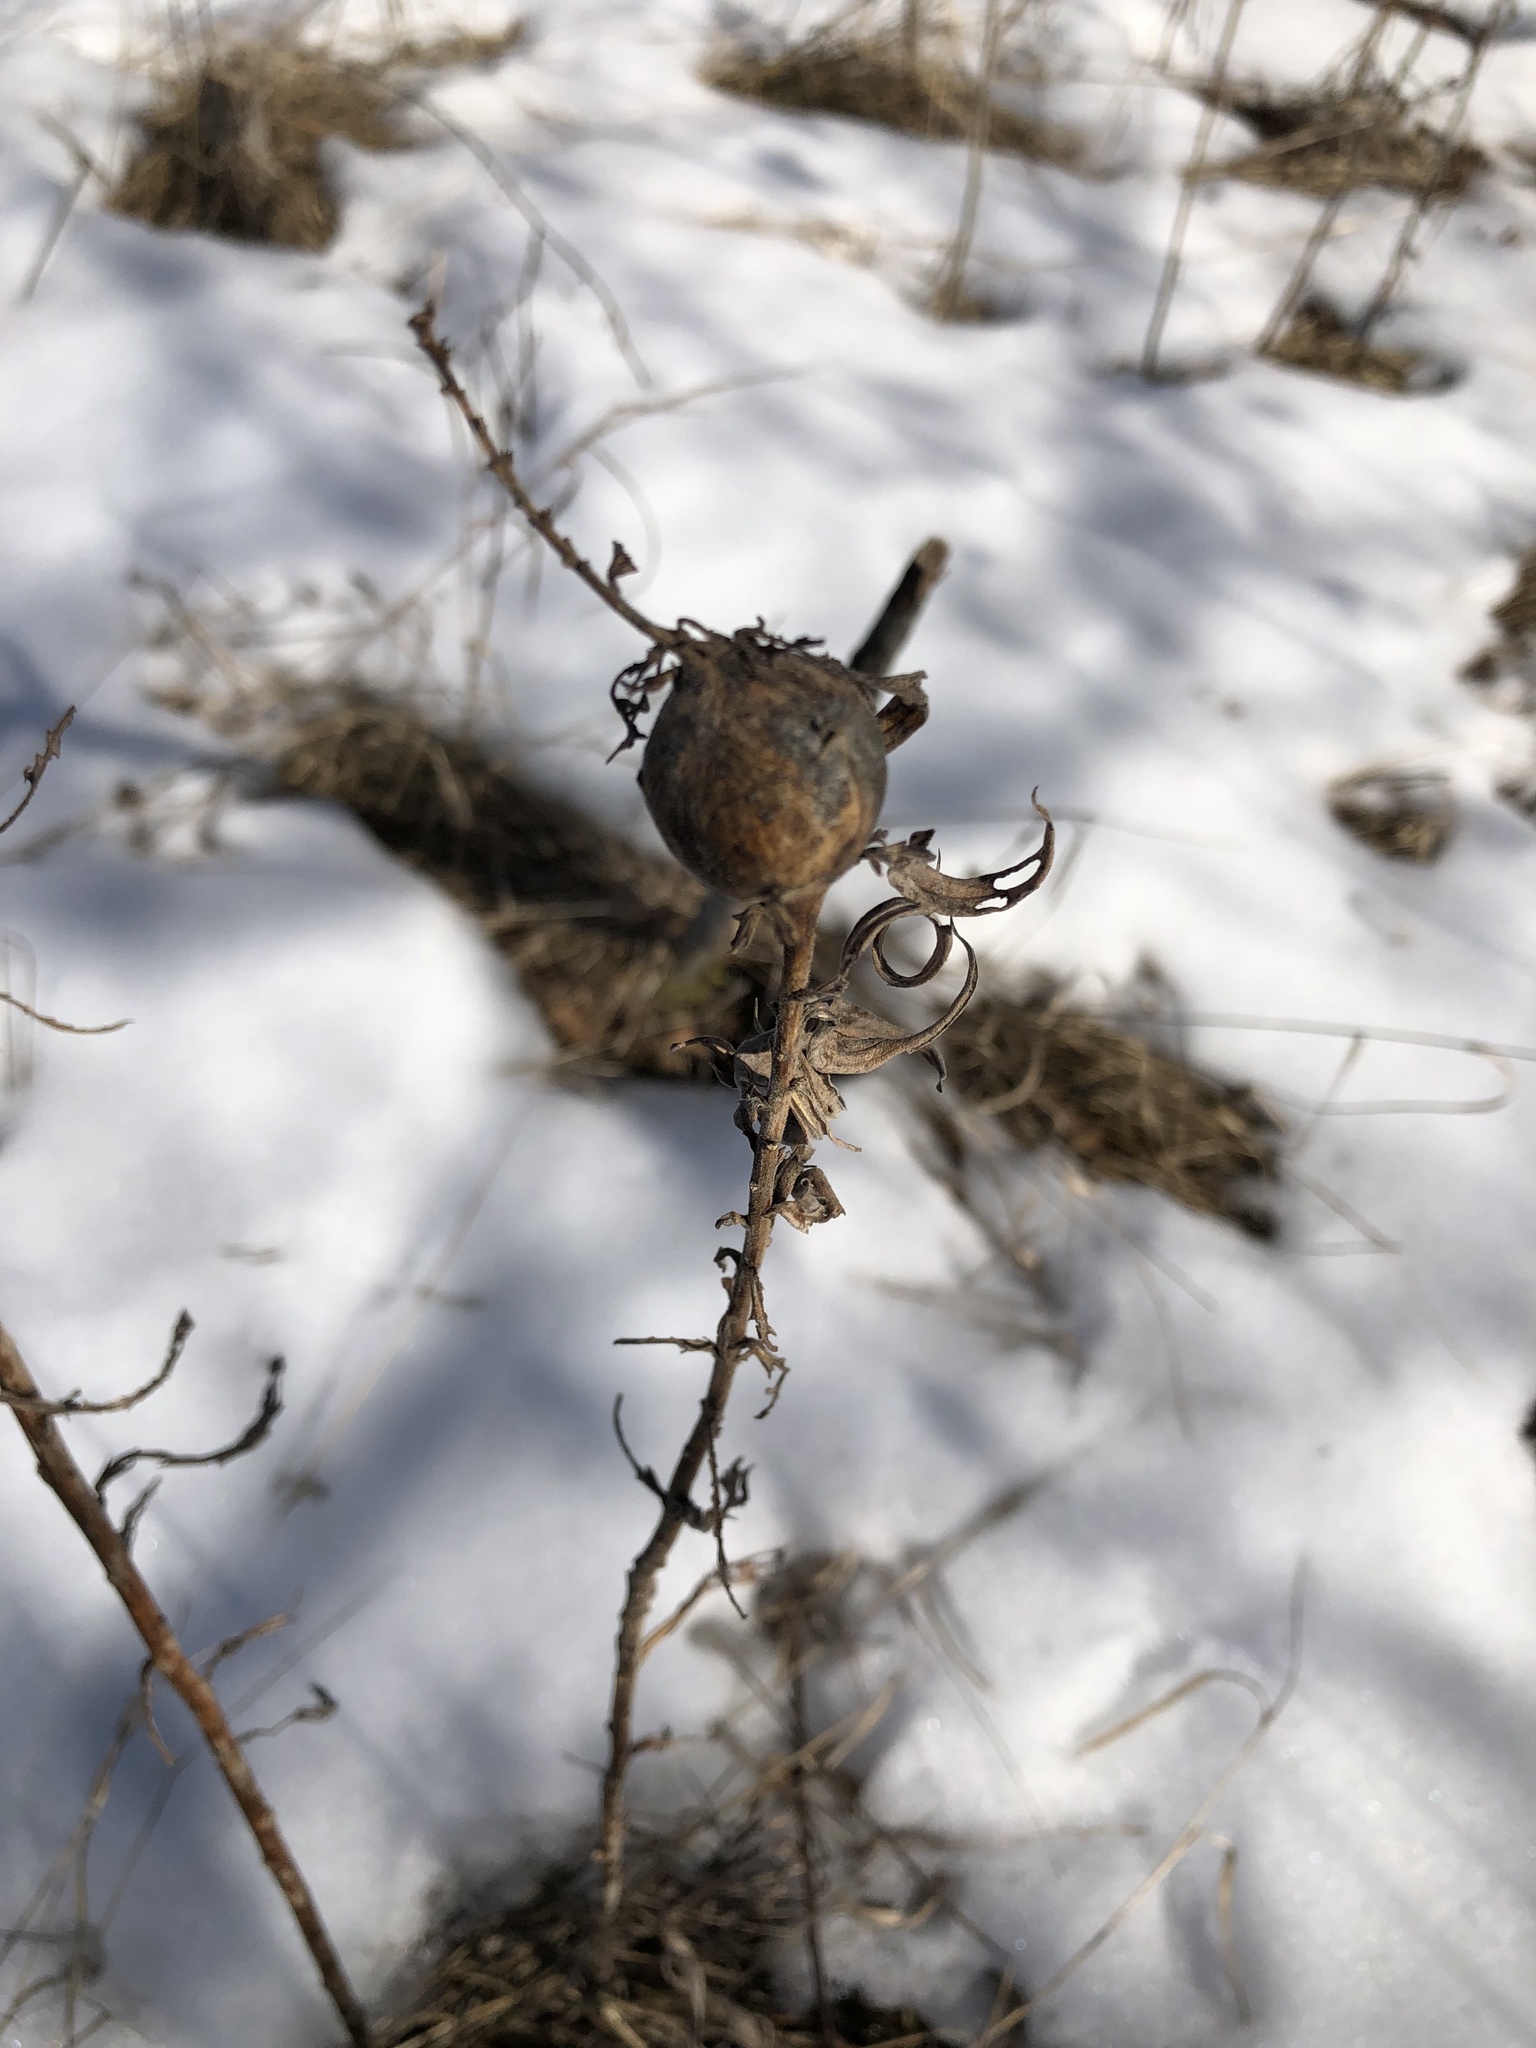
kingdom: Animalia
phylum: Arthropoda
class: Insecta
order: Diptera
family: Tephritidae
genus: Eurosta
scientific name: Eurosta solidaginis
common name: Goldenrod gall fly
